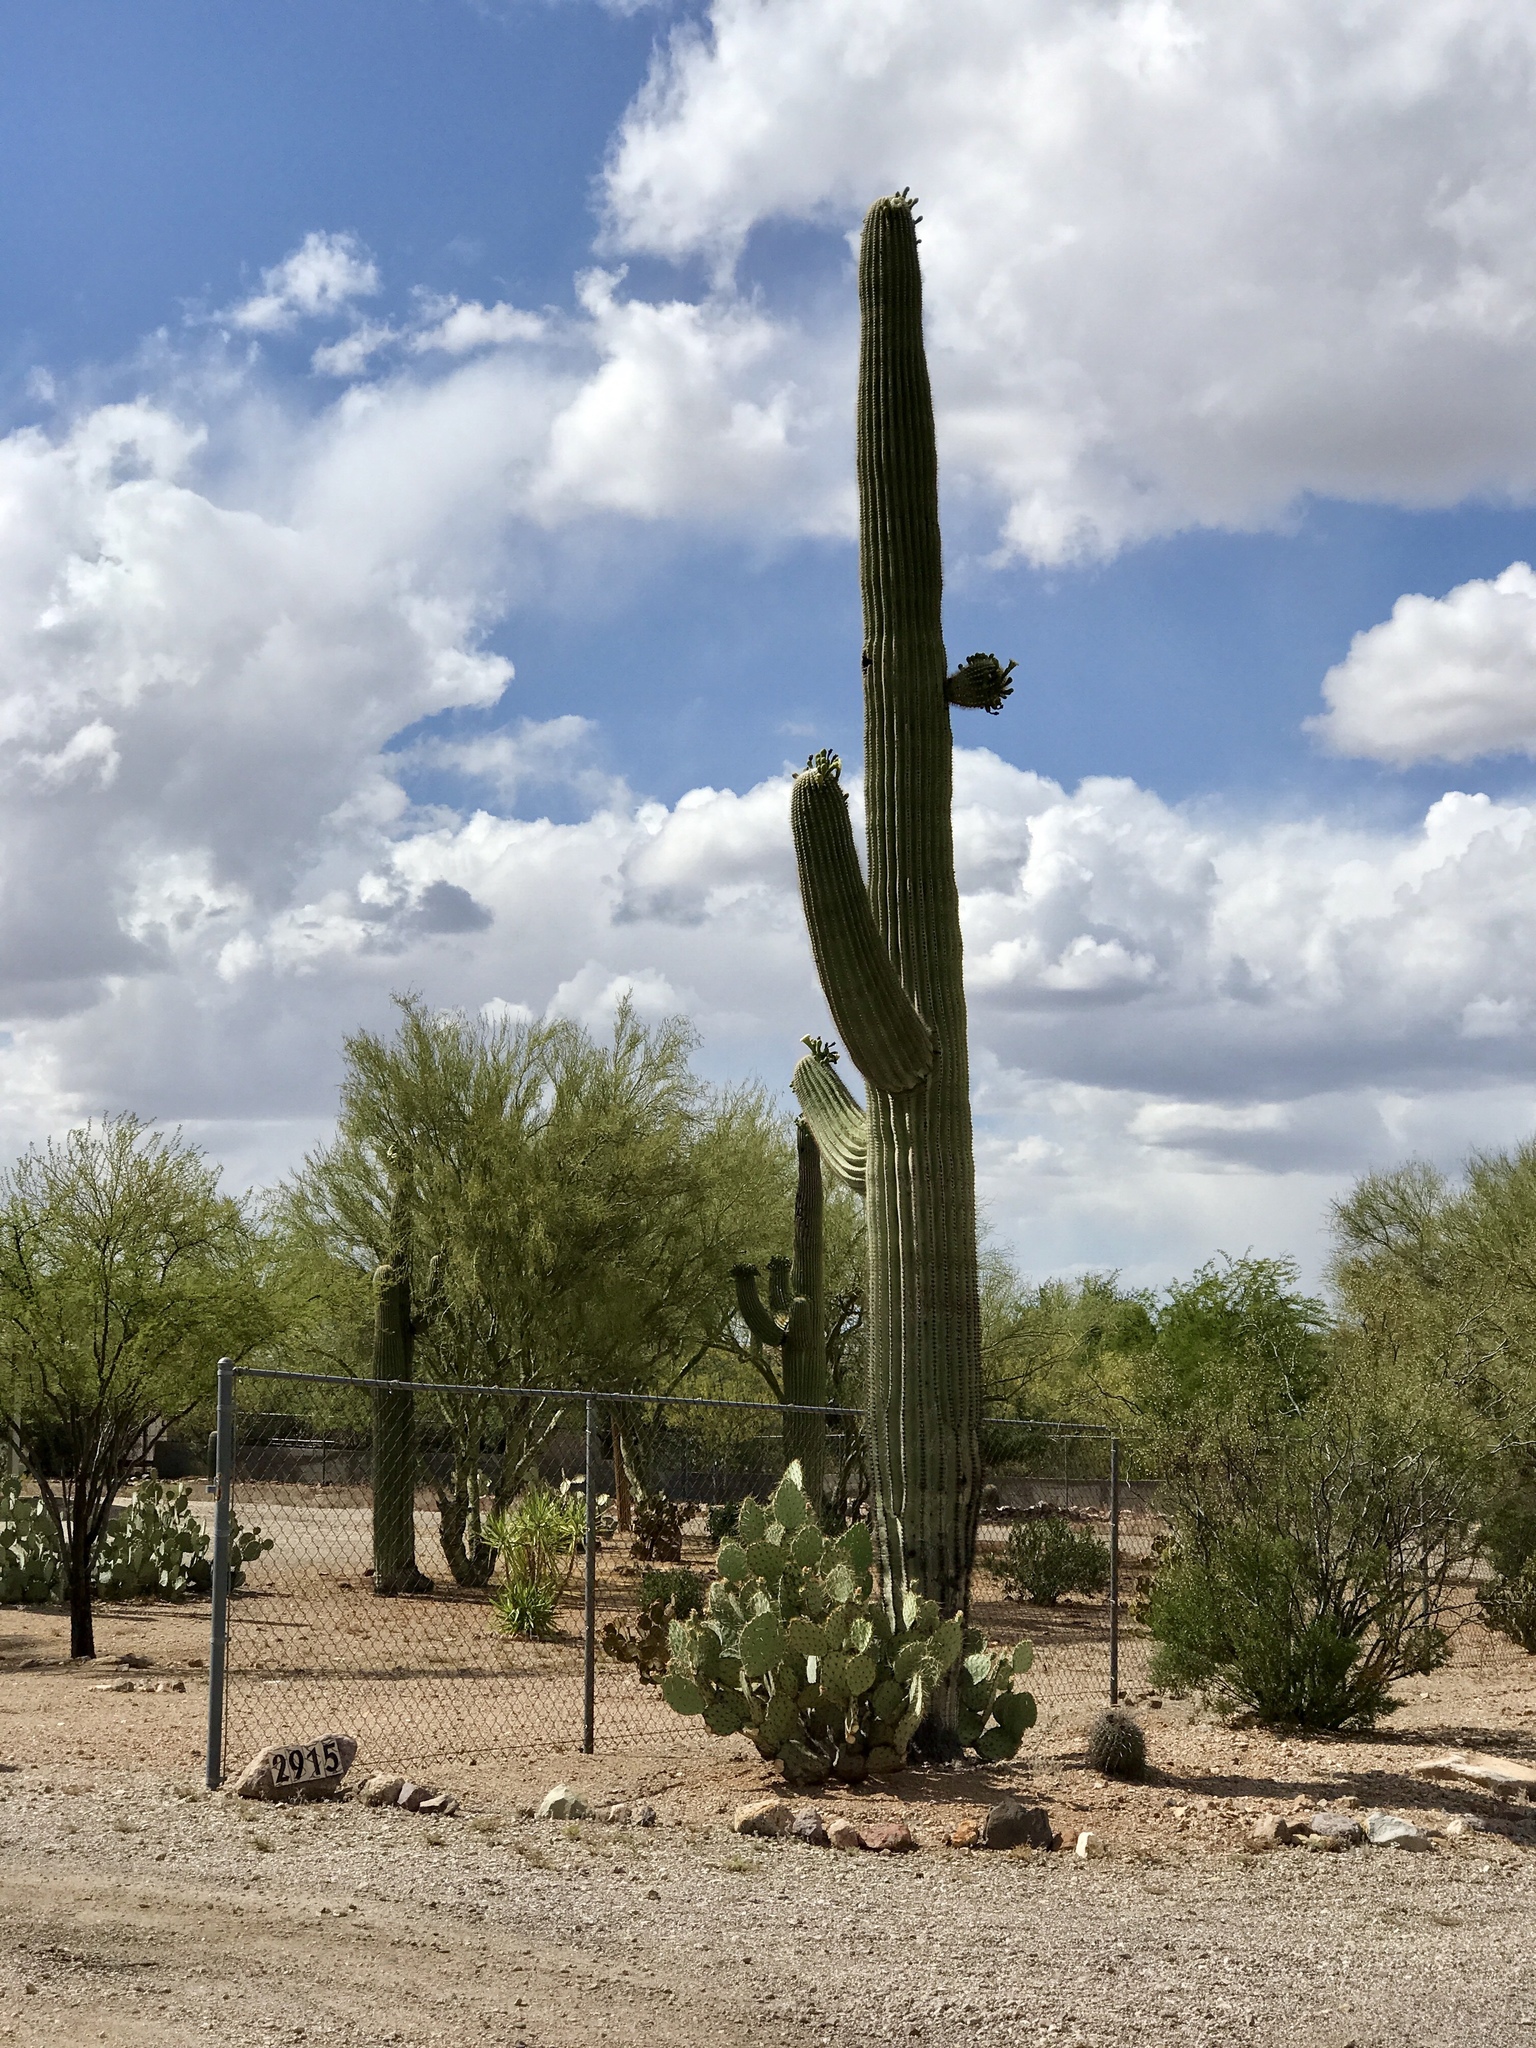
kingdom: Plantae
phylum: Tracheophyta
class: Magnoliopsida
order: Caryophyllales
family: Cactaceae
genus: Carnegiea
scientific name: Carnegiea gigantea
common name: Saguaro
